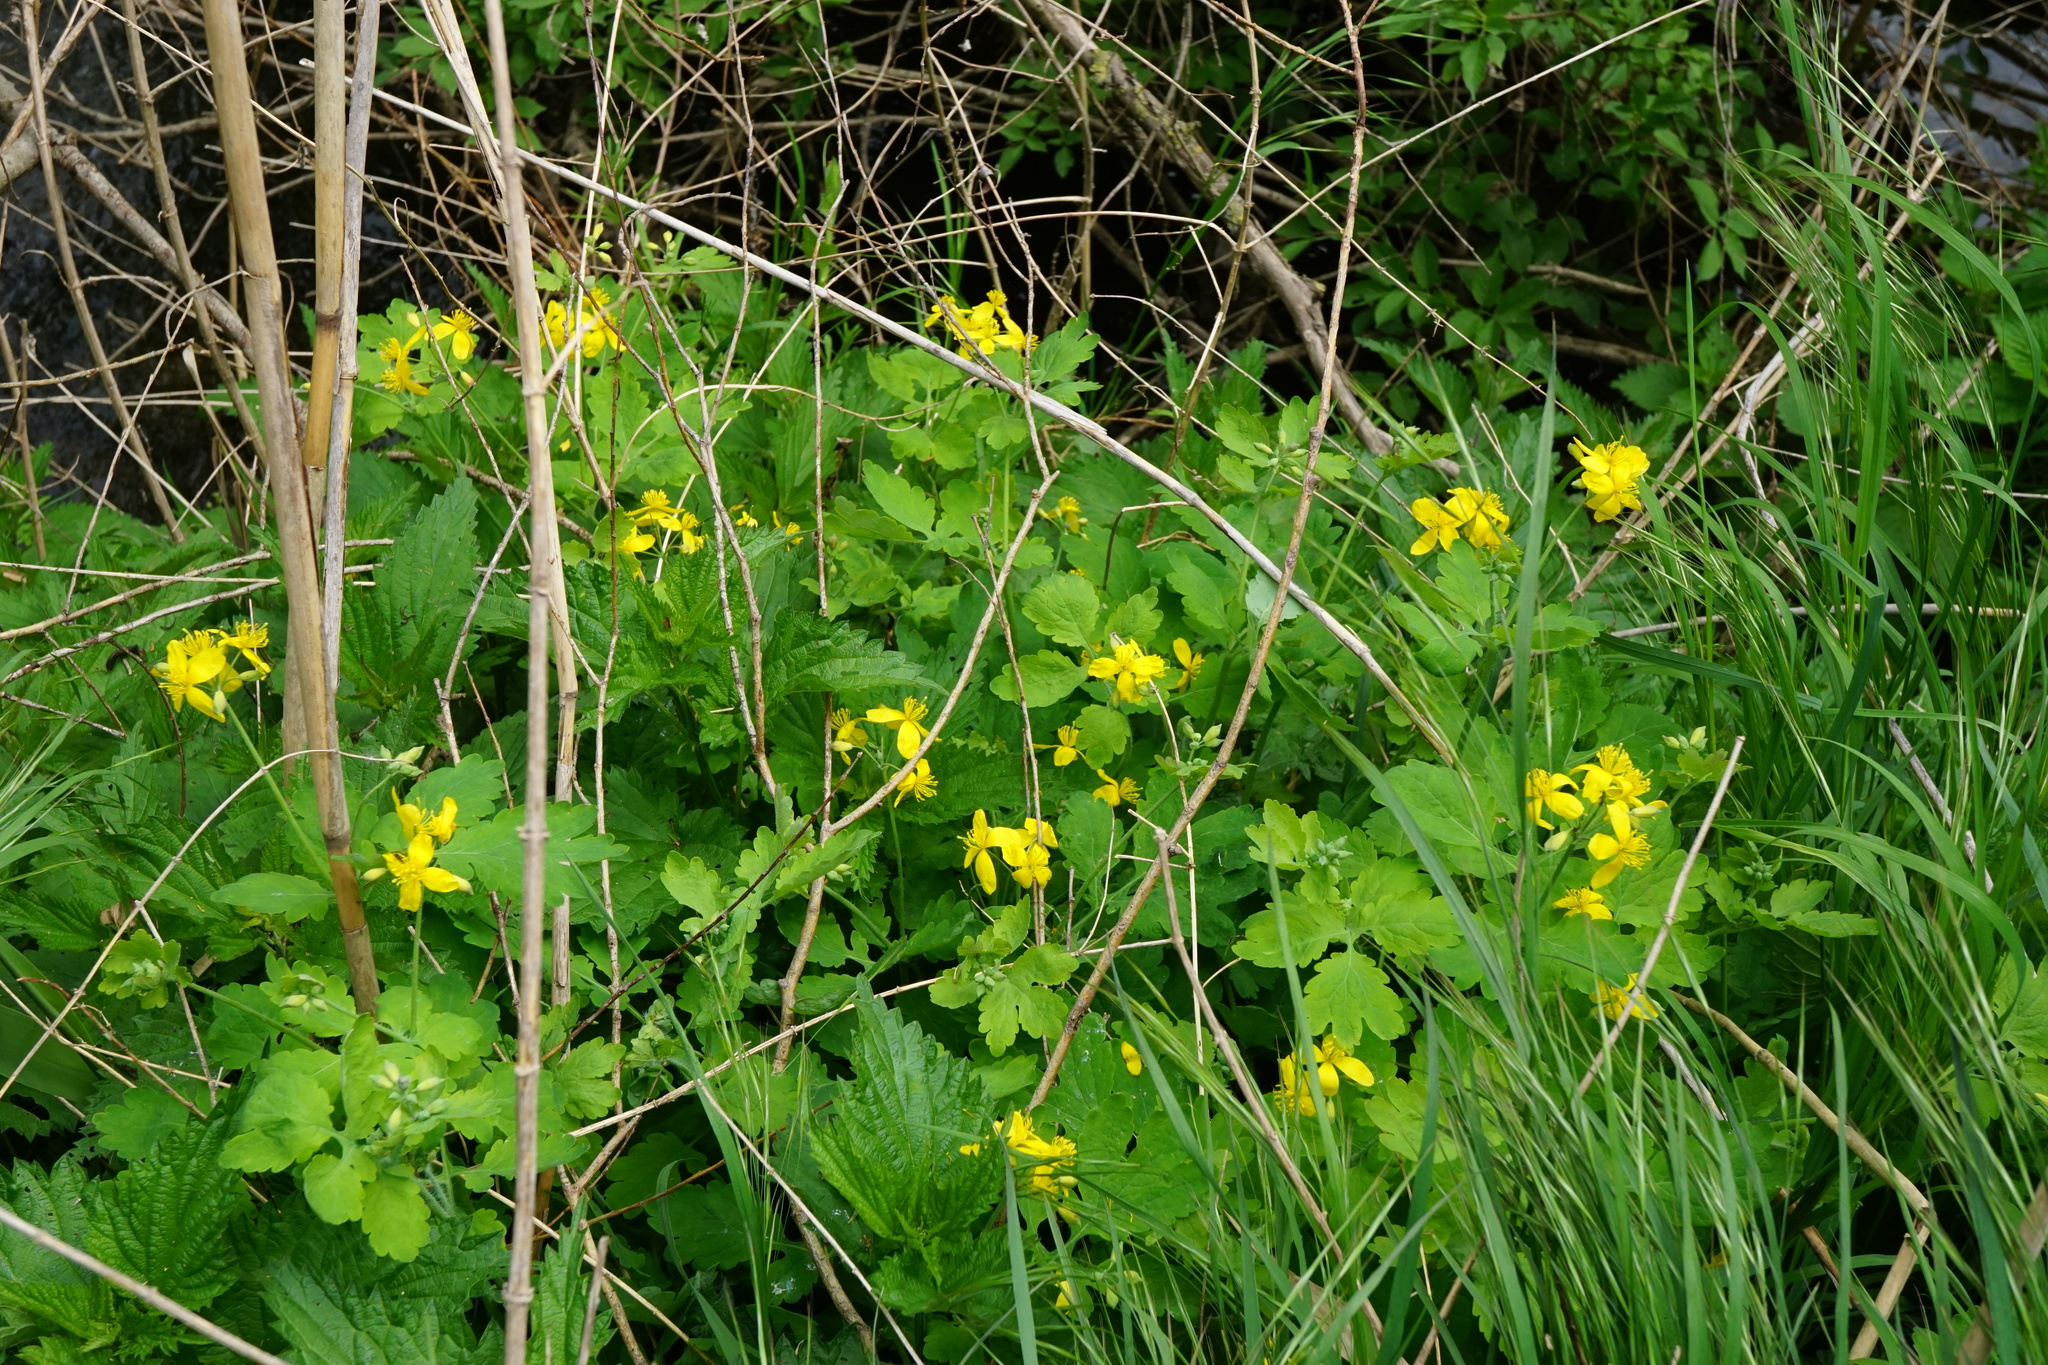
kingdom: Plantae
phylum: Tracheophyta
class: Magnoliopsida
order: Ranunculales
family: Papaveraceae
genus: Chelidonium
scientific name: Chelidonium majus
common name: Greater celandine
